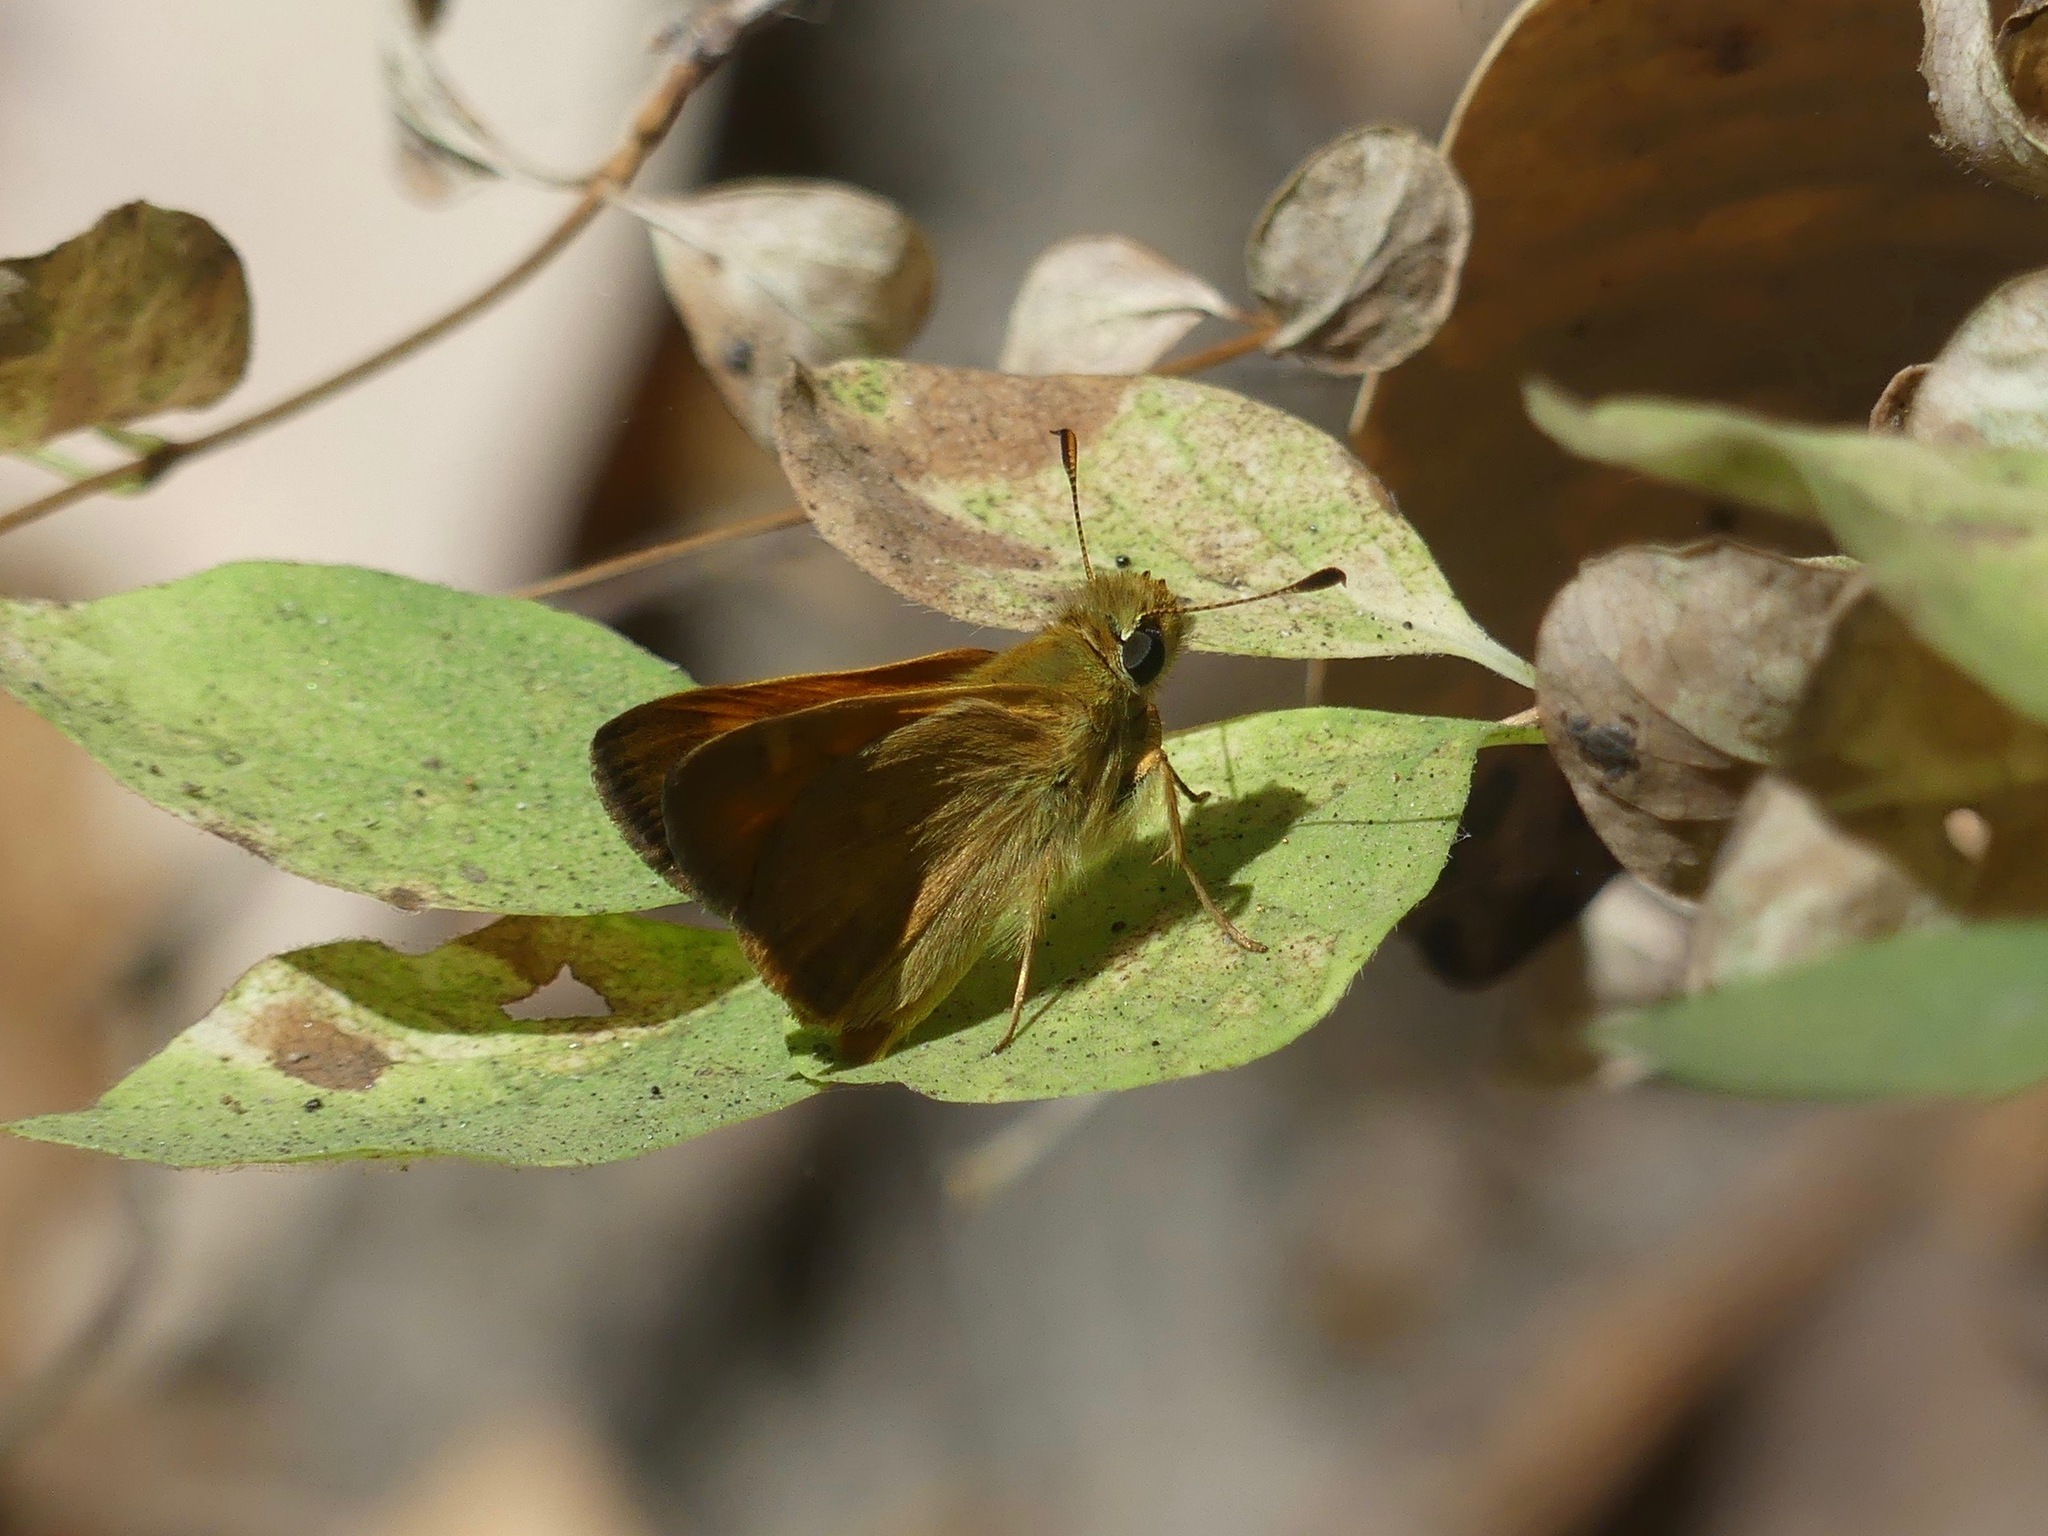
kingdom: Animalia
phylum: Arthropoda
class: Insecta
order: Lepidoptera
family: Hesperiidae
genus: Ochlodes
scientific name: Ochlodes sylvanoides
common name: Woodland skipper
